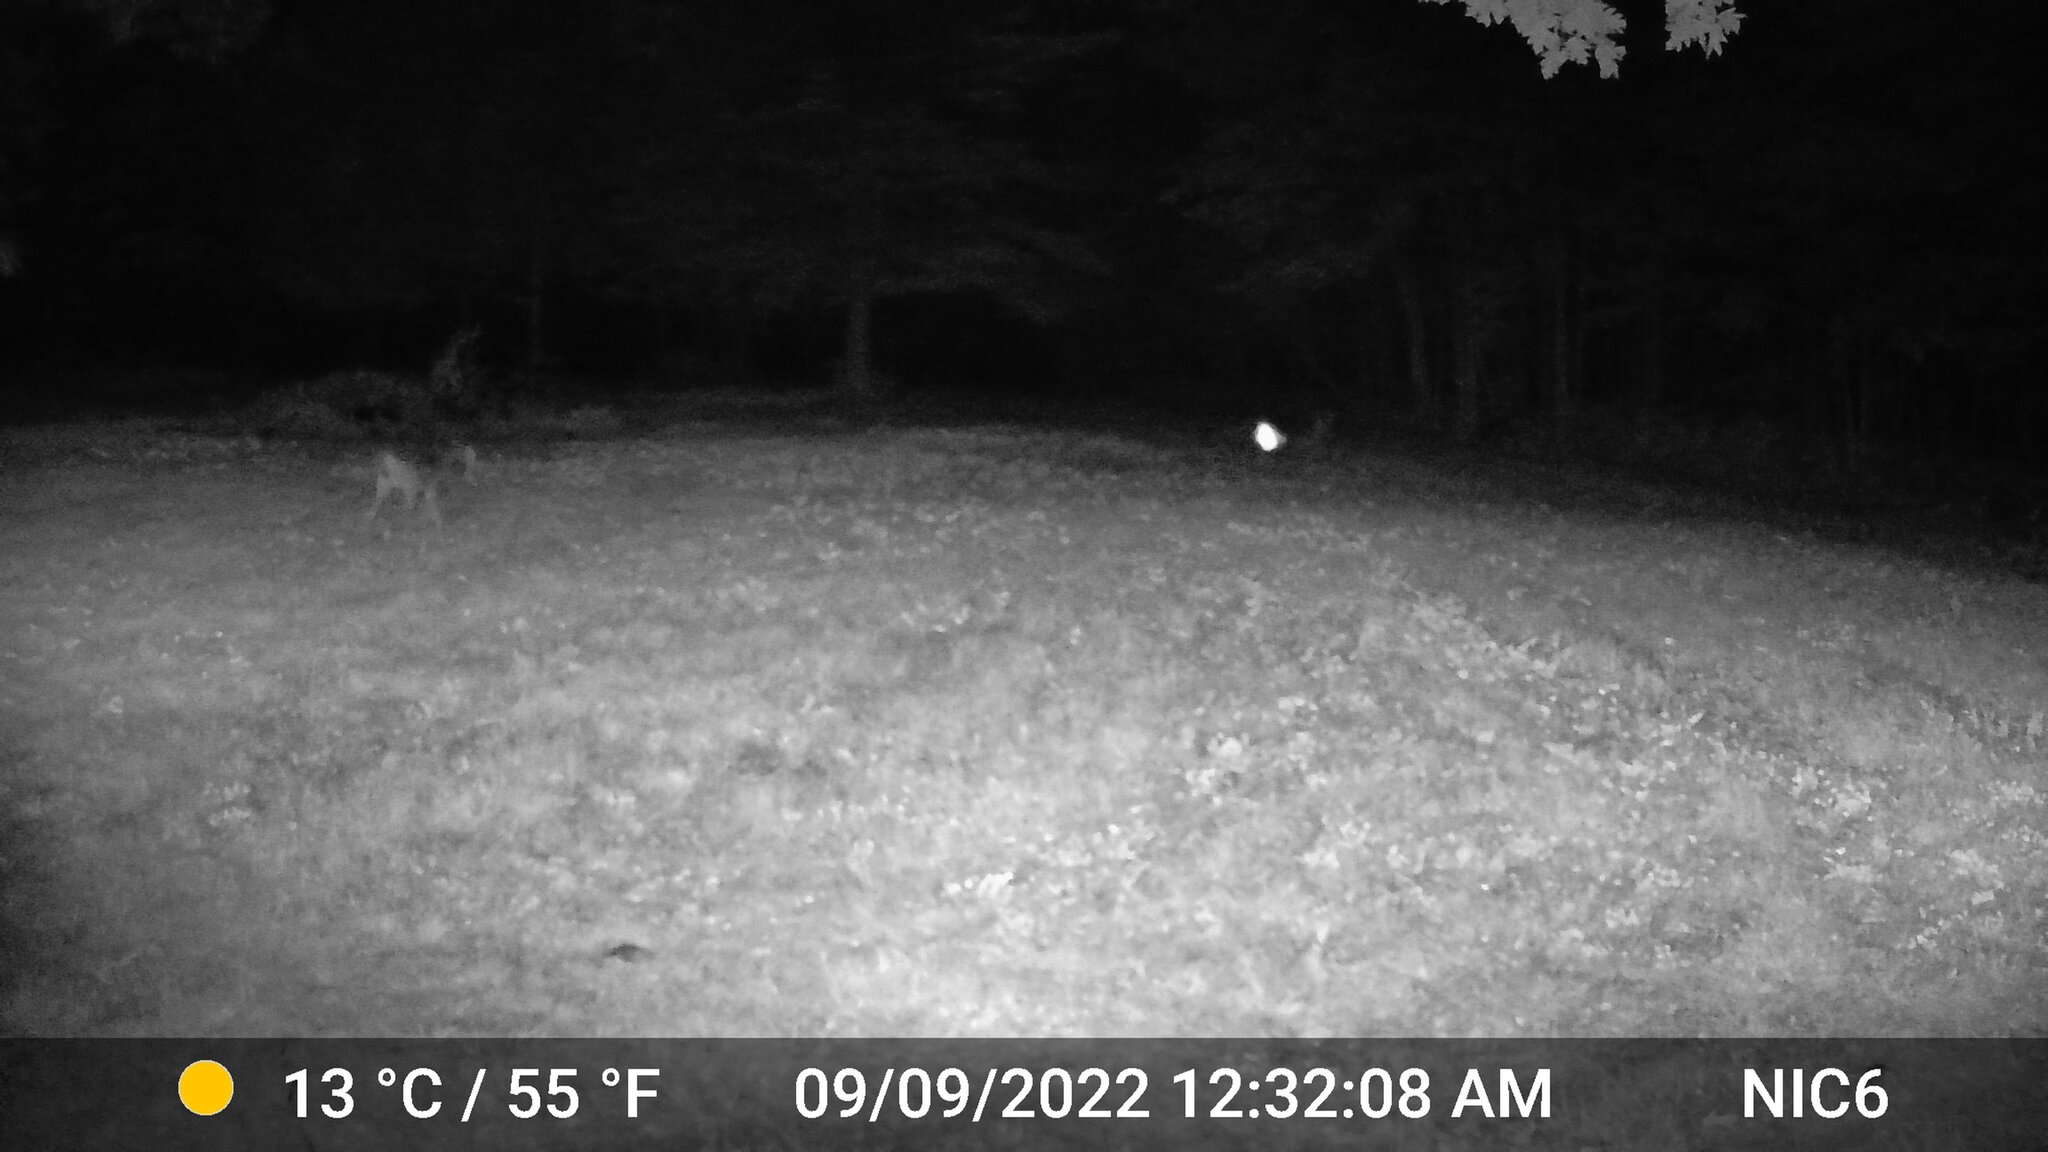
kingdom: Animalia
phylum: Chordata
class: Mammalia
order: Artiodactyla
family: Cervidae
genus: Odocoileus
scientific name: Odocoileus virginianus
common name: White-tailed deer
